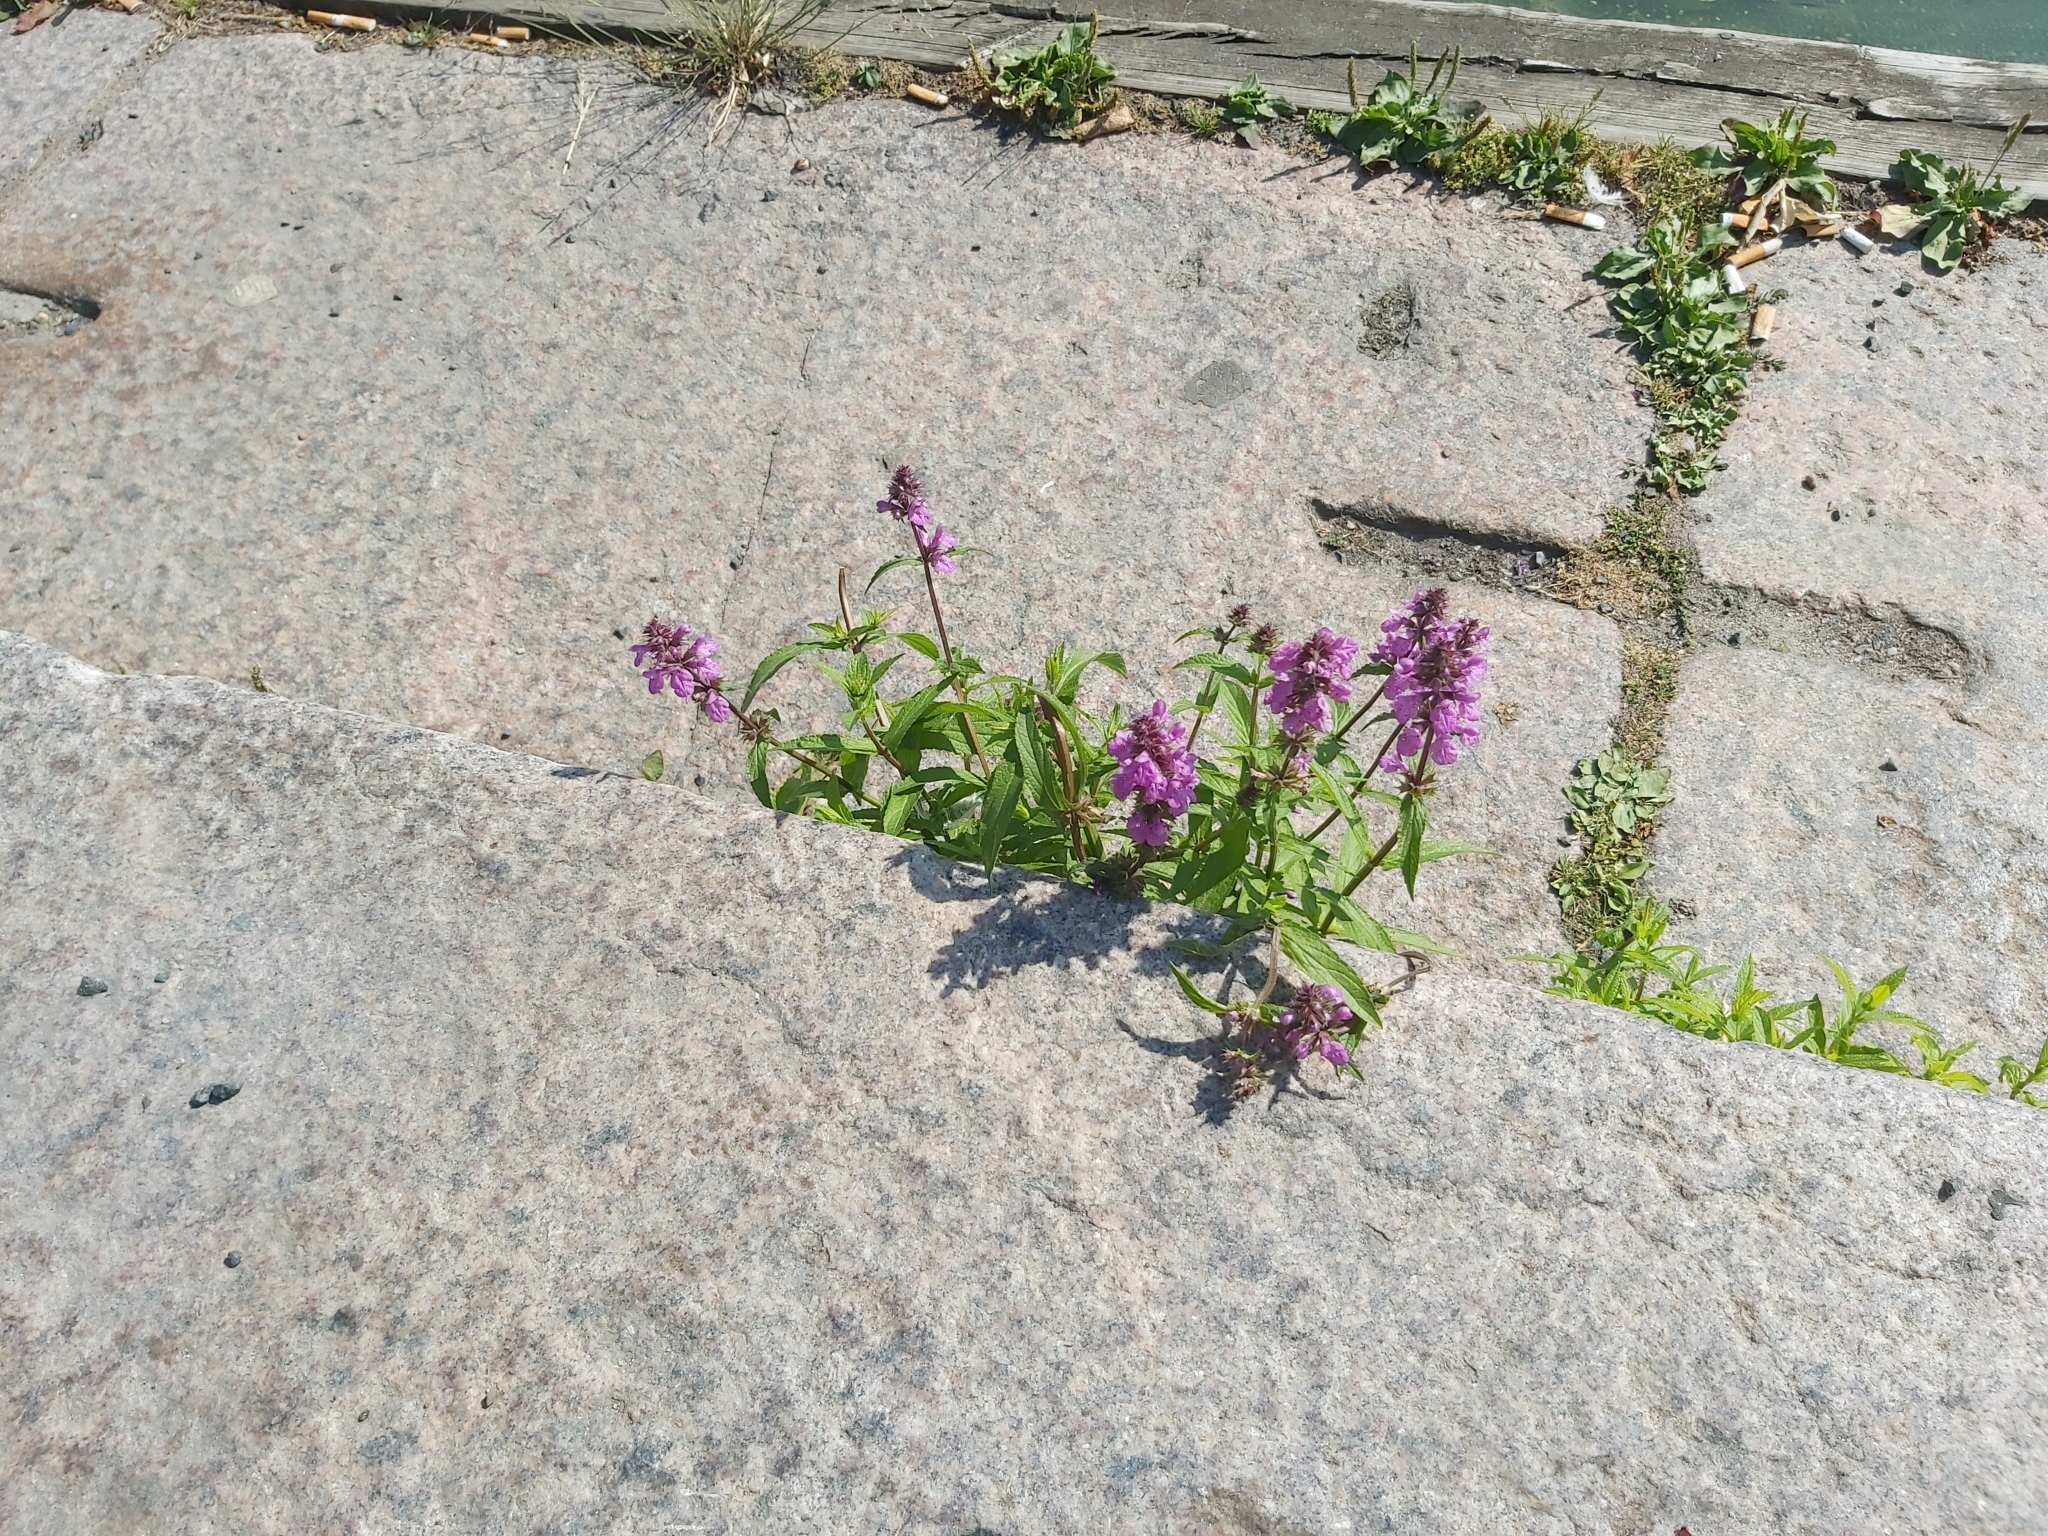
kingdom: Plantae
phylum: Tracheophyta
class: Magnoliopsida
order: Lamiales
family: Lamiaceae
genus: Stachys
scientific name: Stachys palustris
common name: Marsh woundwort
